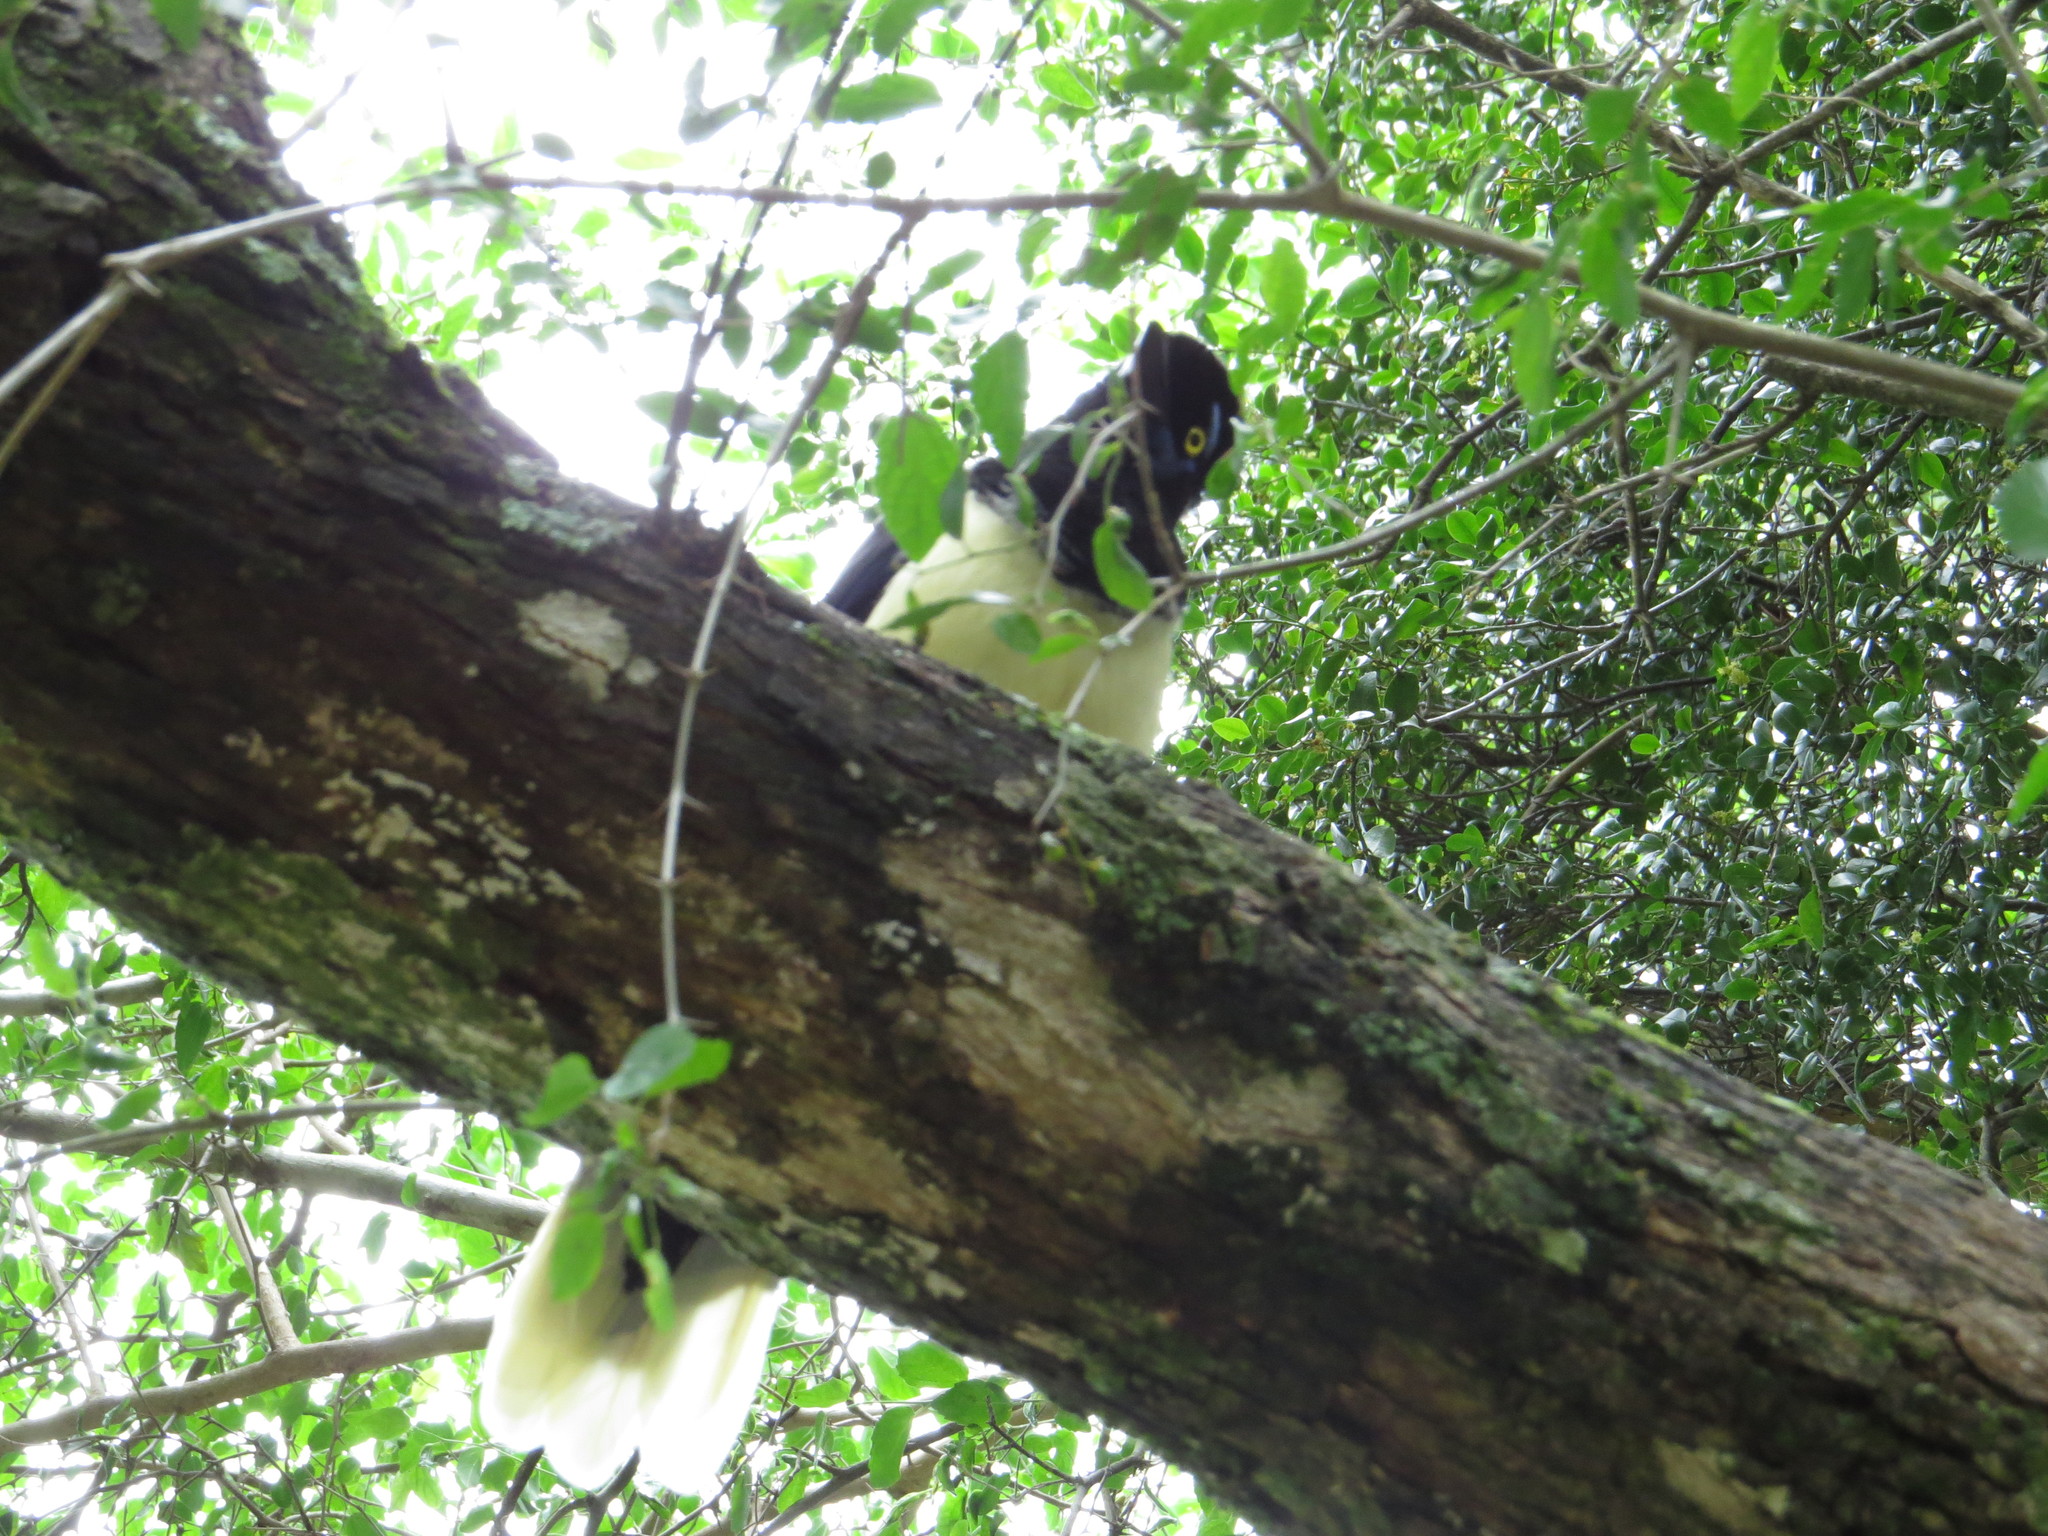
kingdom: Animalia
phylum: Chordata
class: Aves
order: Passeriformes
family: Corvidae
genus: Cyanocorax
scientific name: Cyanocorax chrysops
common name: Plush-crested jay
